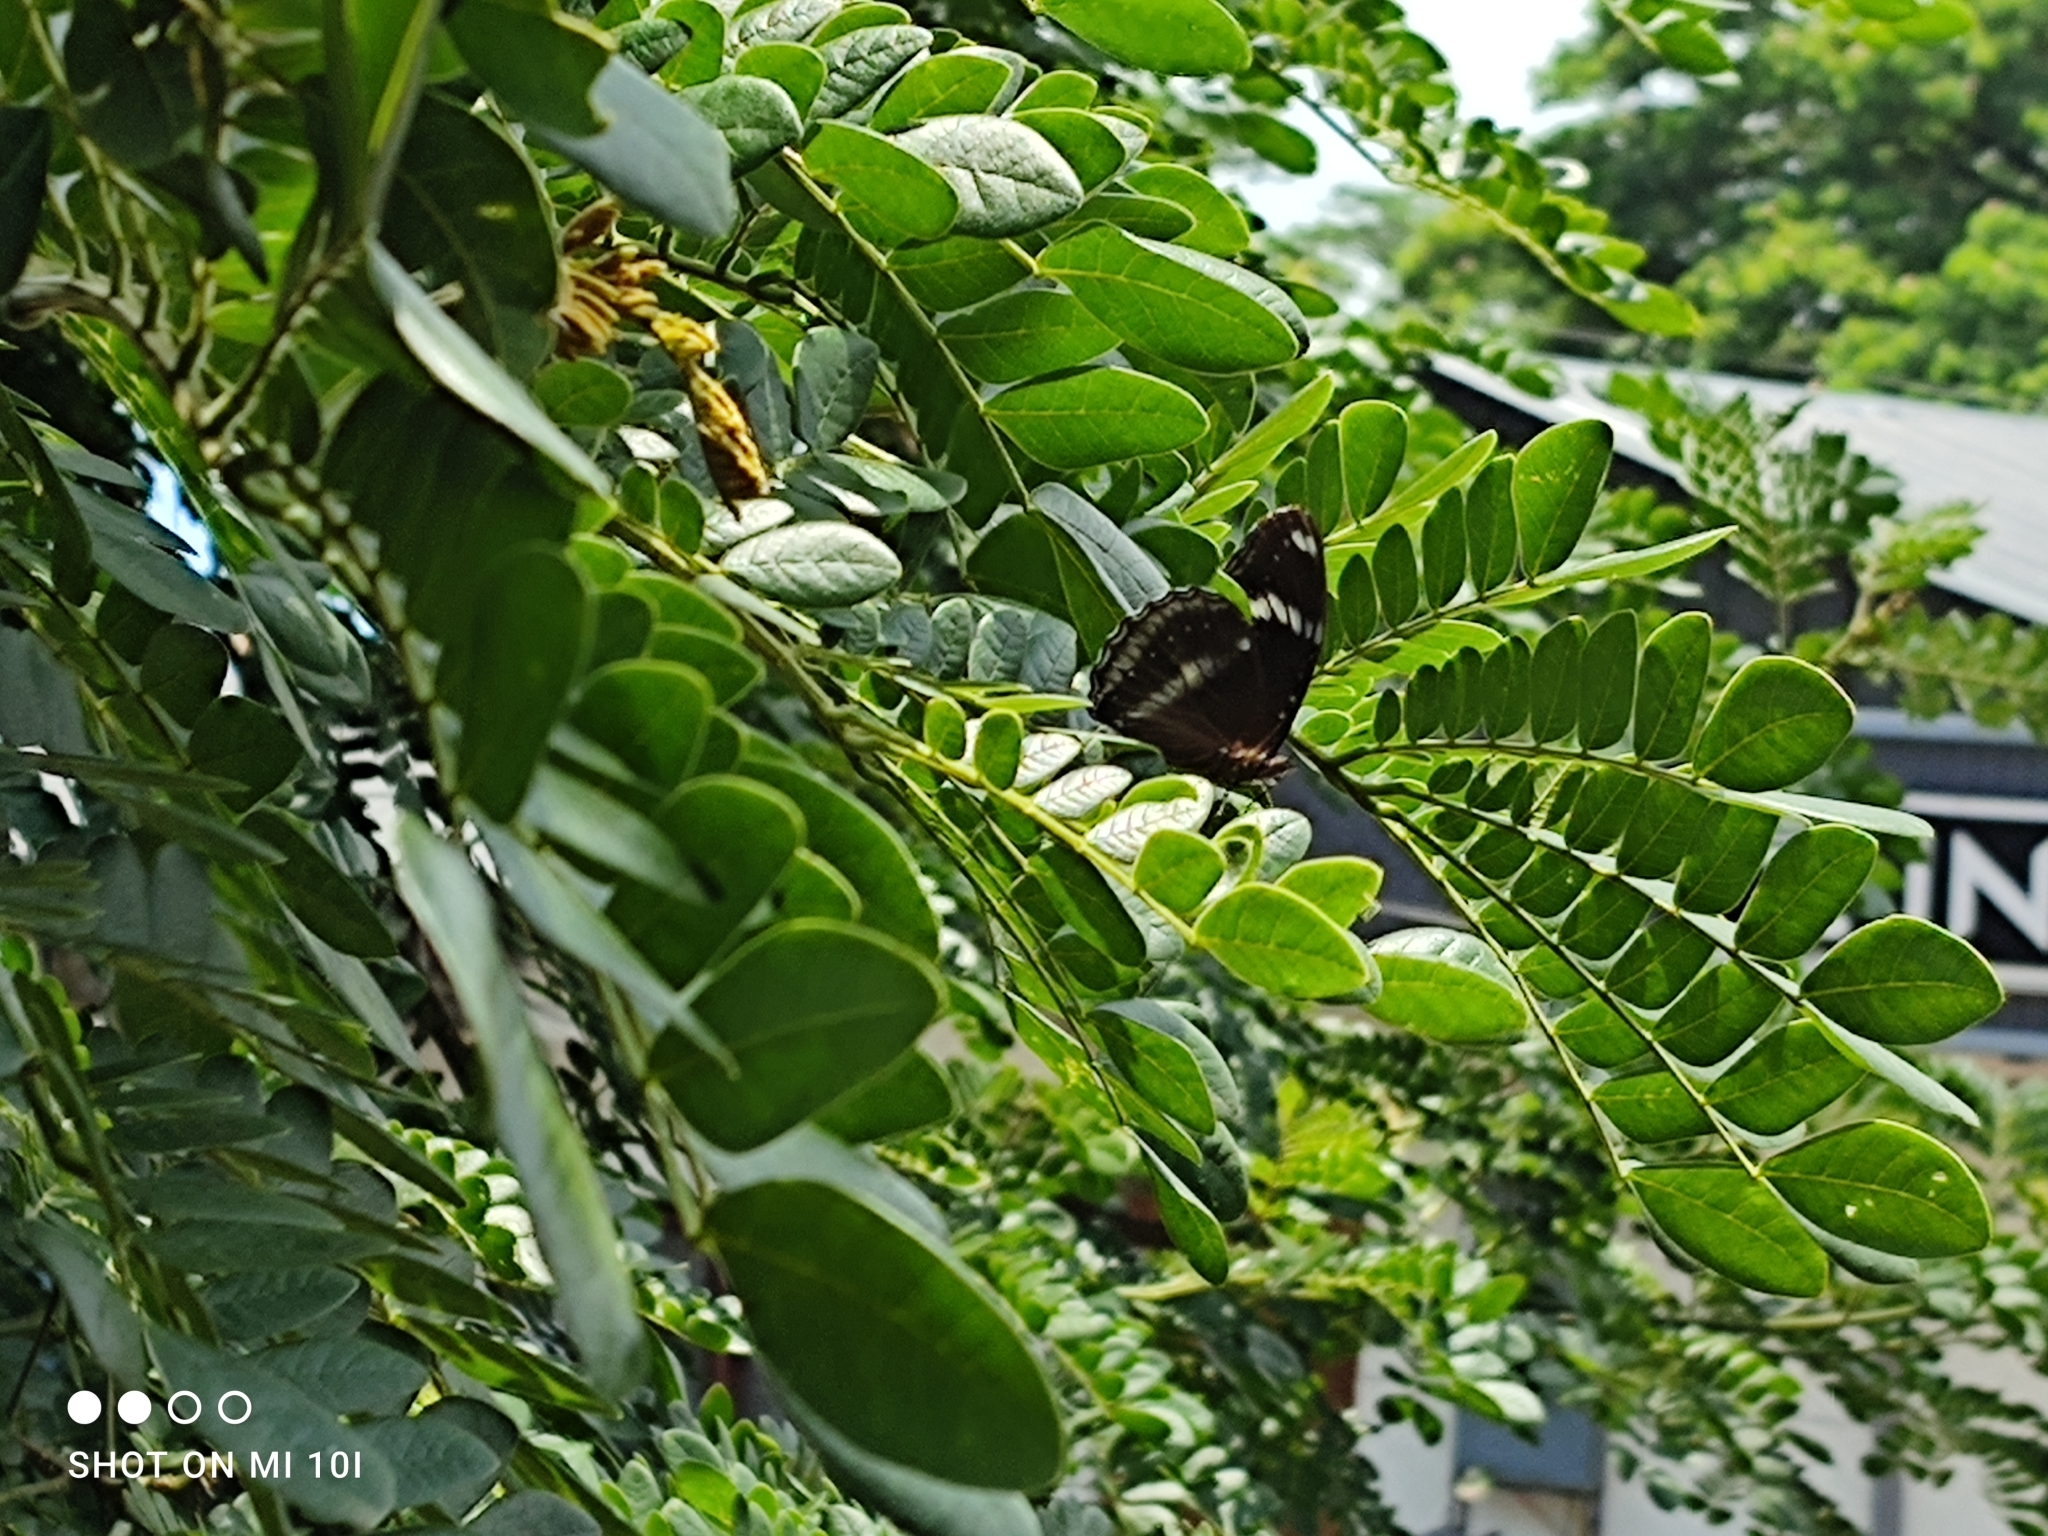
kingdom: Animalia
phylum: Arthropoda
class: Insecta
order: Lepidoptera
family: Nymphalidae
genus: Hypolimnas
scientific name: Hypolimnas bolina
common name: Great eggfly
